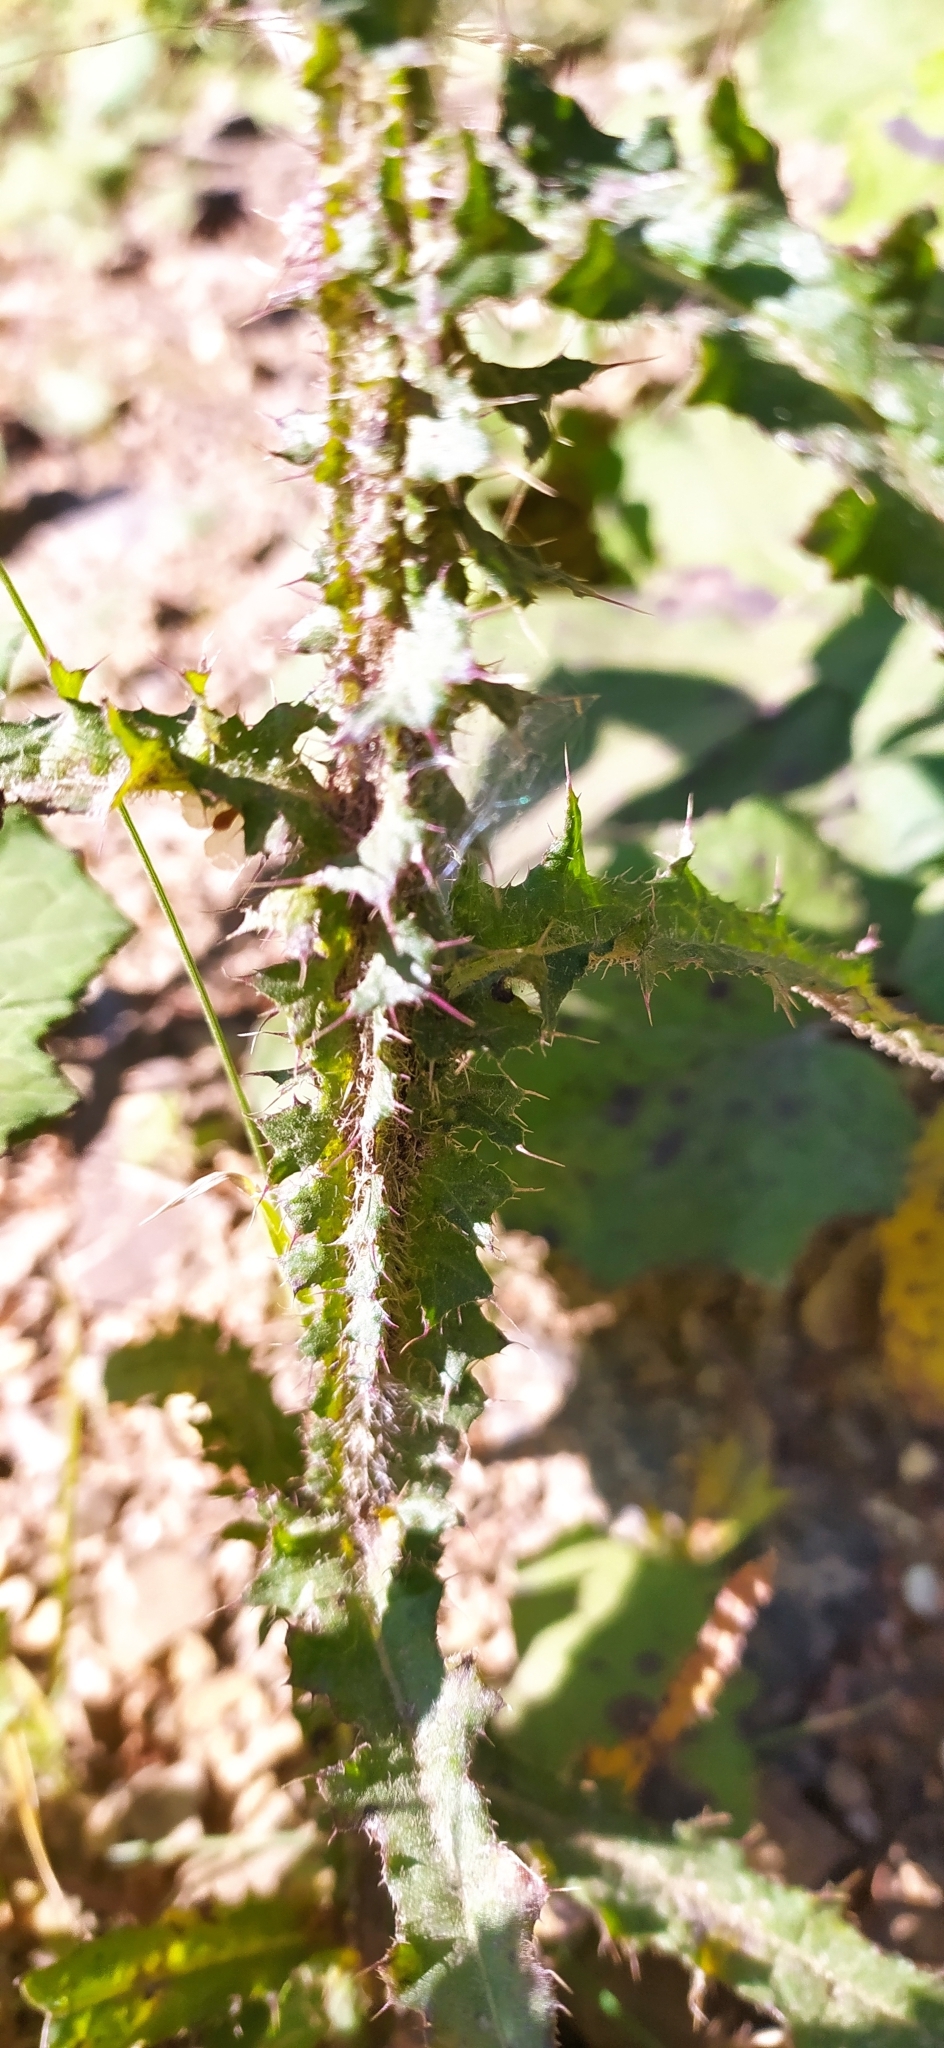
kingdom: Plantae
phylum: Tracheophyta
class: Magnoliopsida
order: Asterales
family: Asteraceae
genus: Cirsium
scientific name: Cirsium palustre
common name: Marsh thistle
